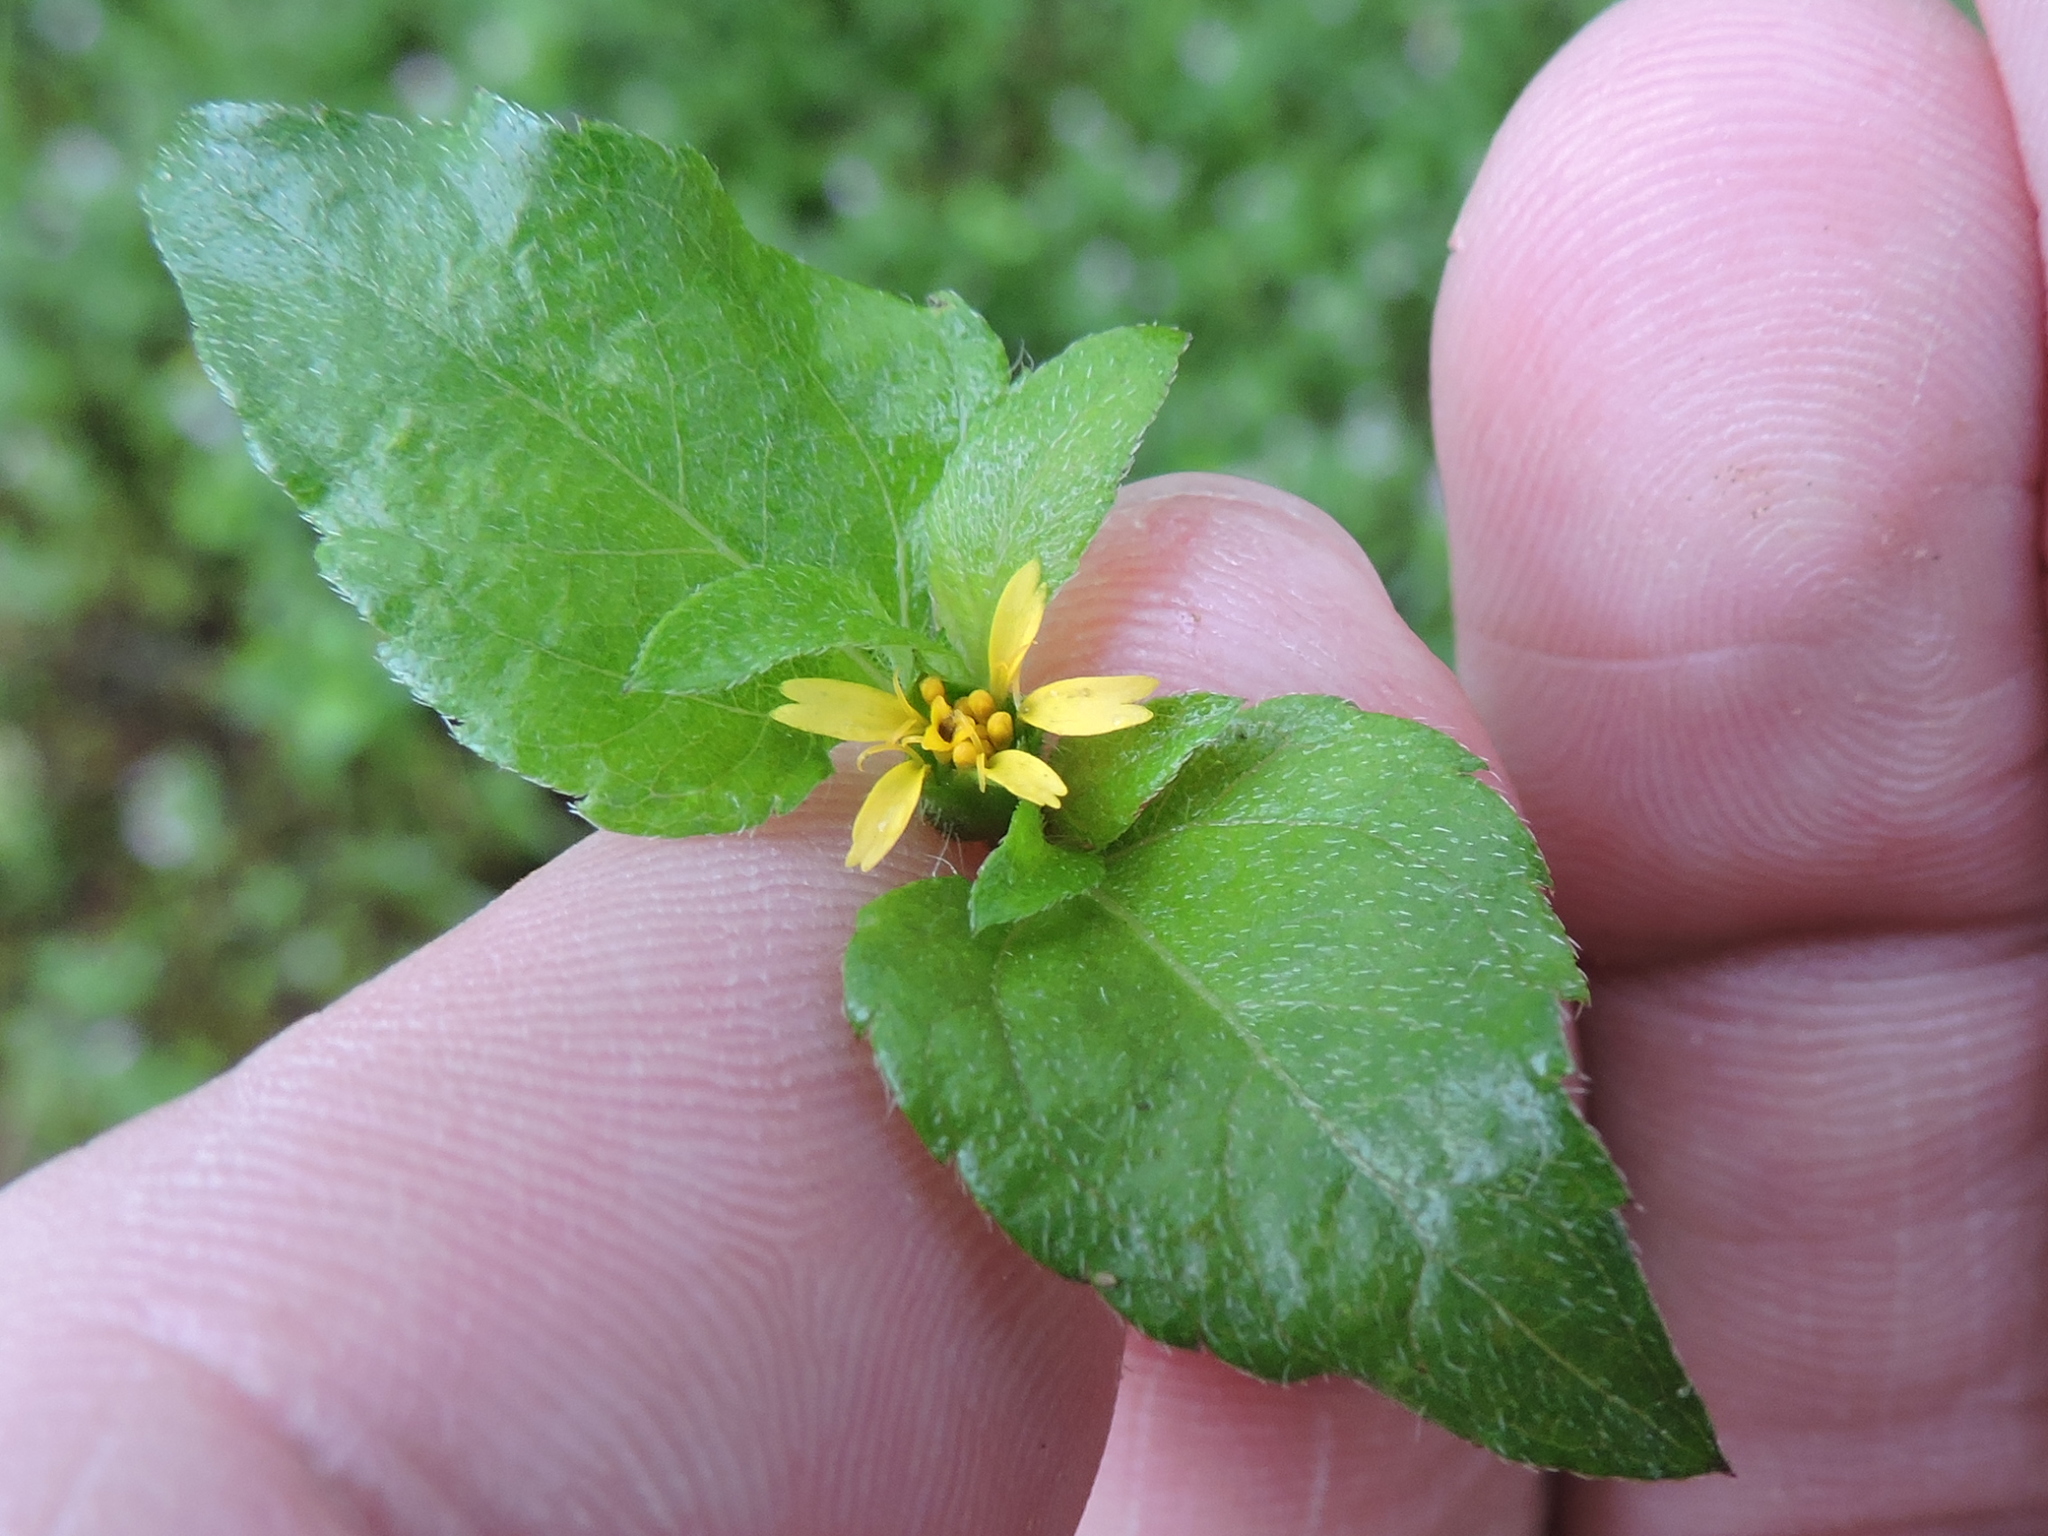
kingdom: Plantae
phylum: Tracheophyta
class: Magnoliopsida
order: Asterales
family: Asteraceae
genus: Calyptocarpus
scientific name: Calyptocarpus vialis
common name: Straggler daisy
